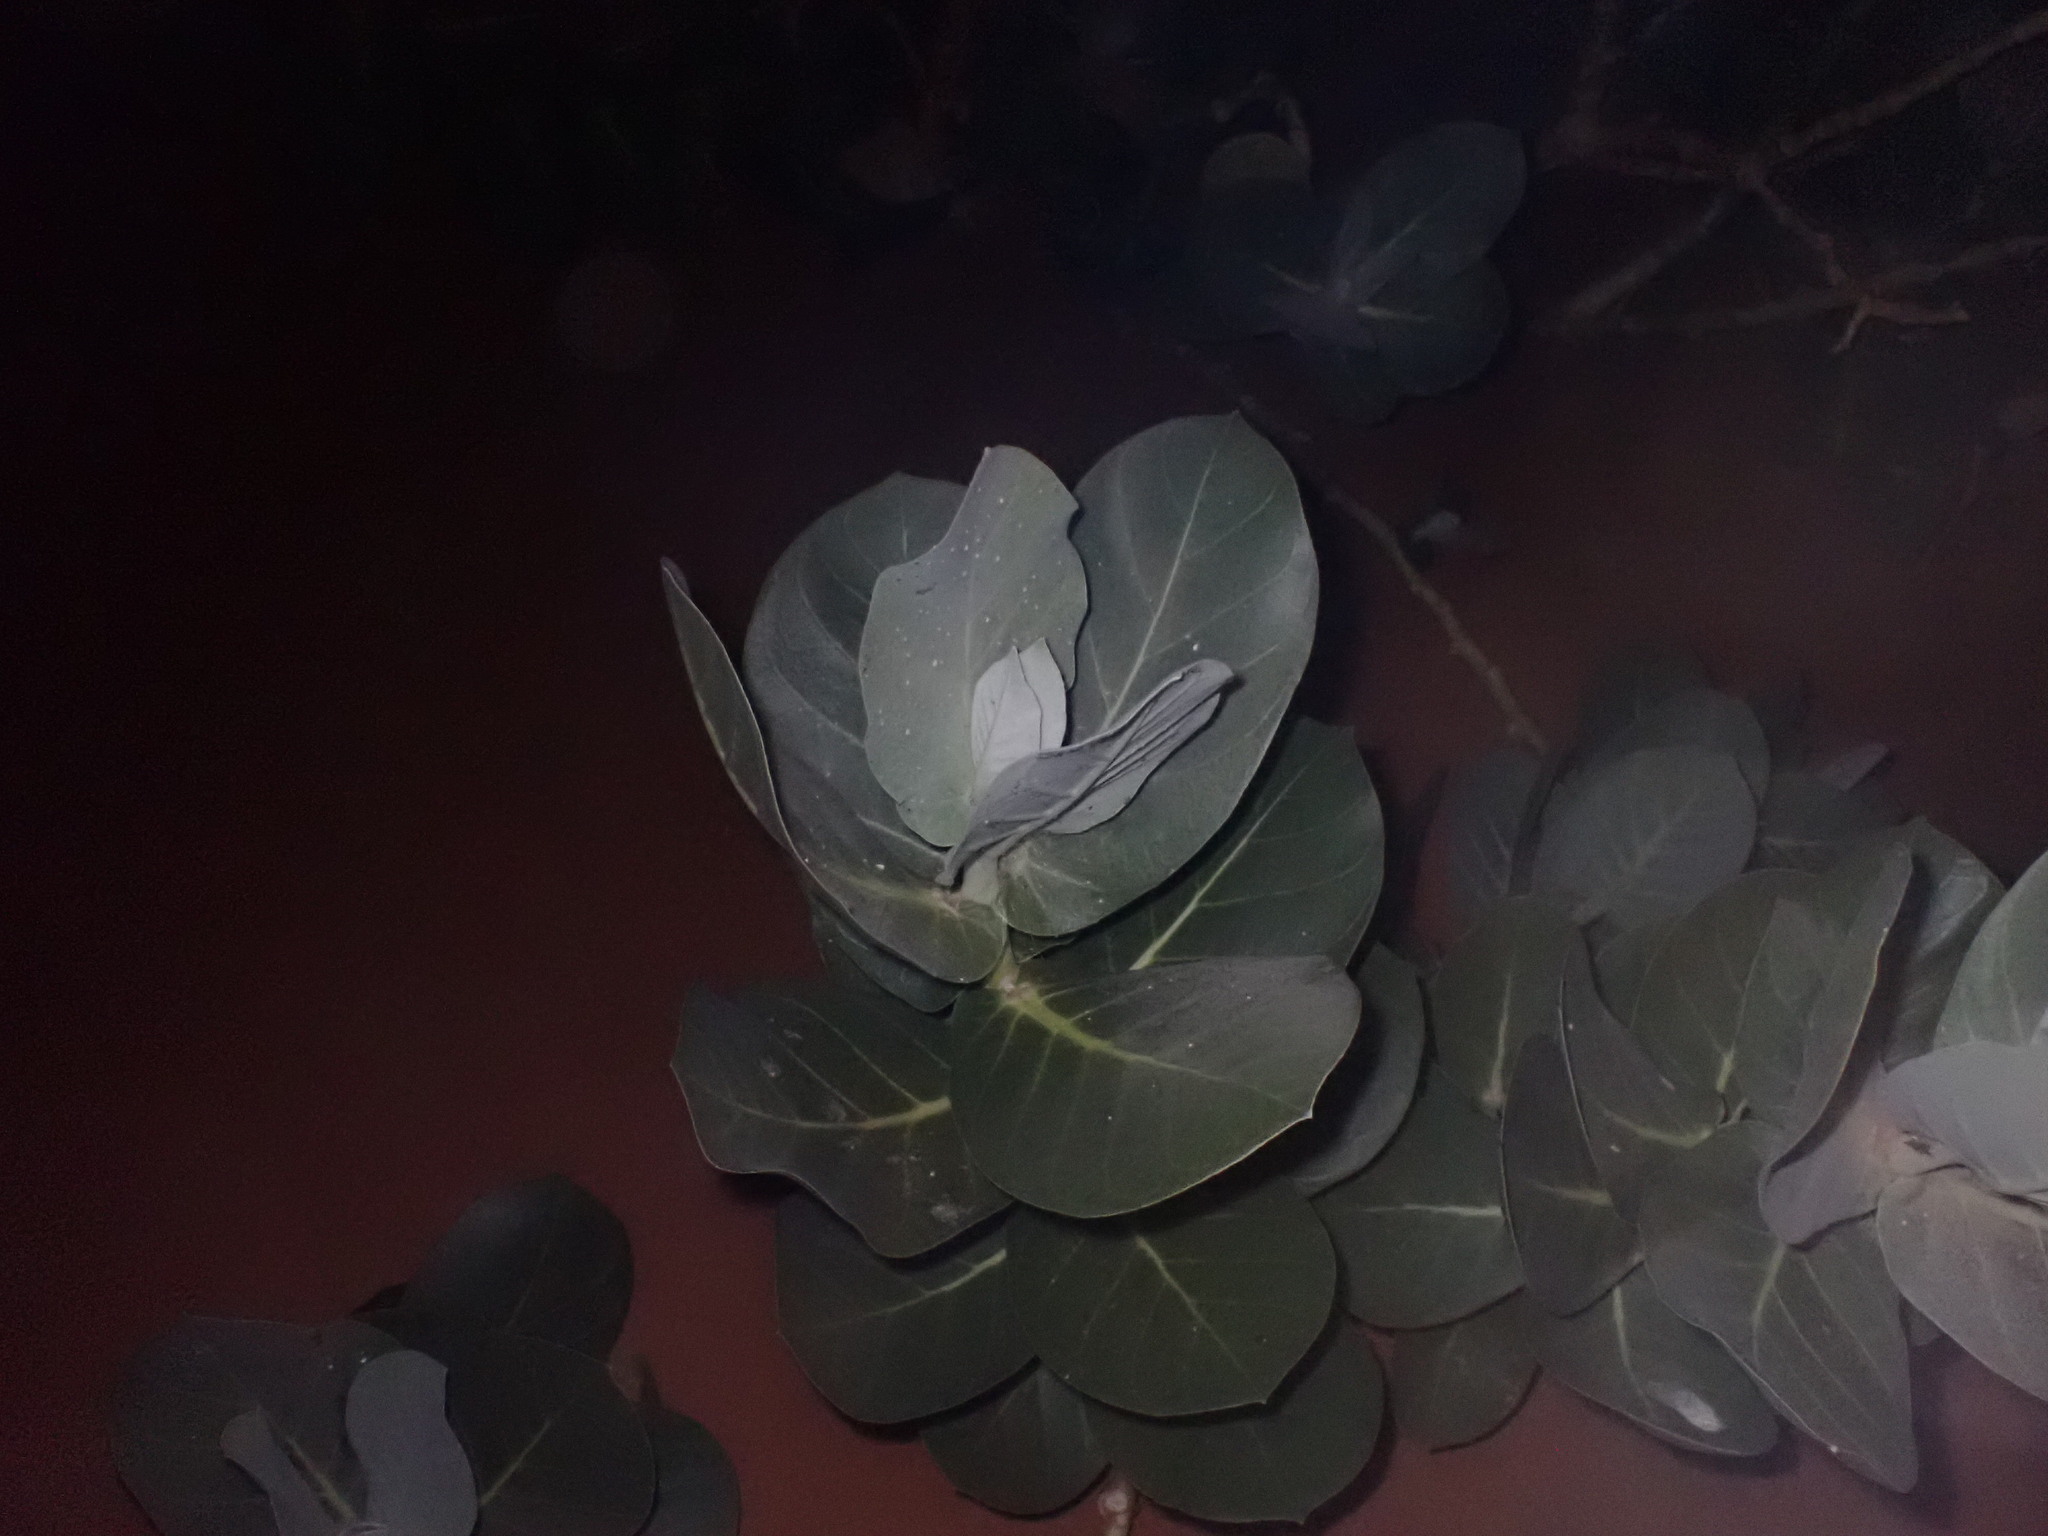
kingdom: Plantae
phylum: Tracheophyta
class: Magnoliopsida
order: Gentianales
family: Apocynaceae
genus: Calotropis
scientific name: Calotropis procera
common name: Roostertree
